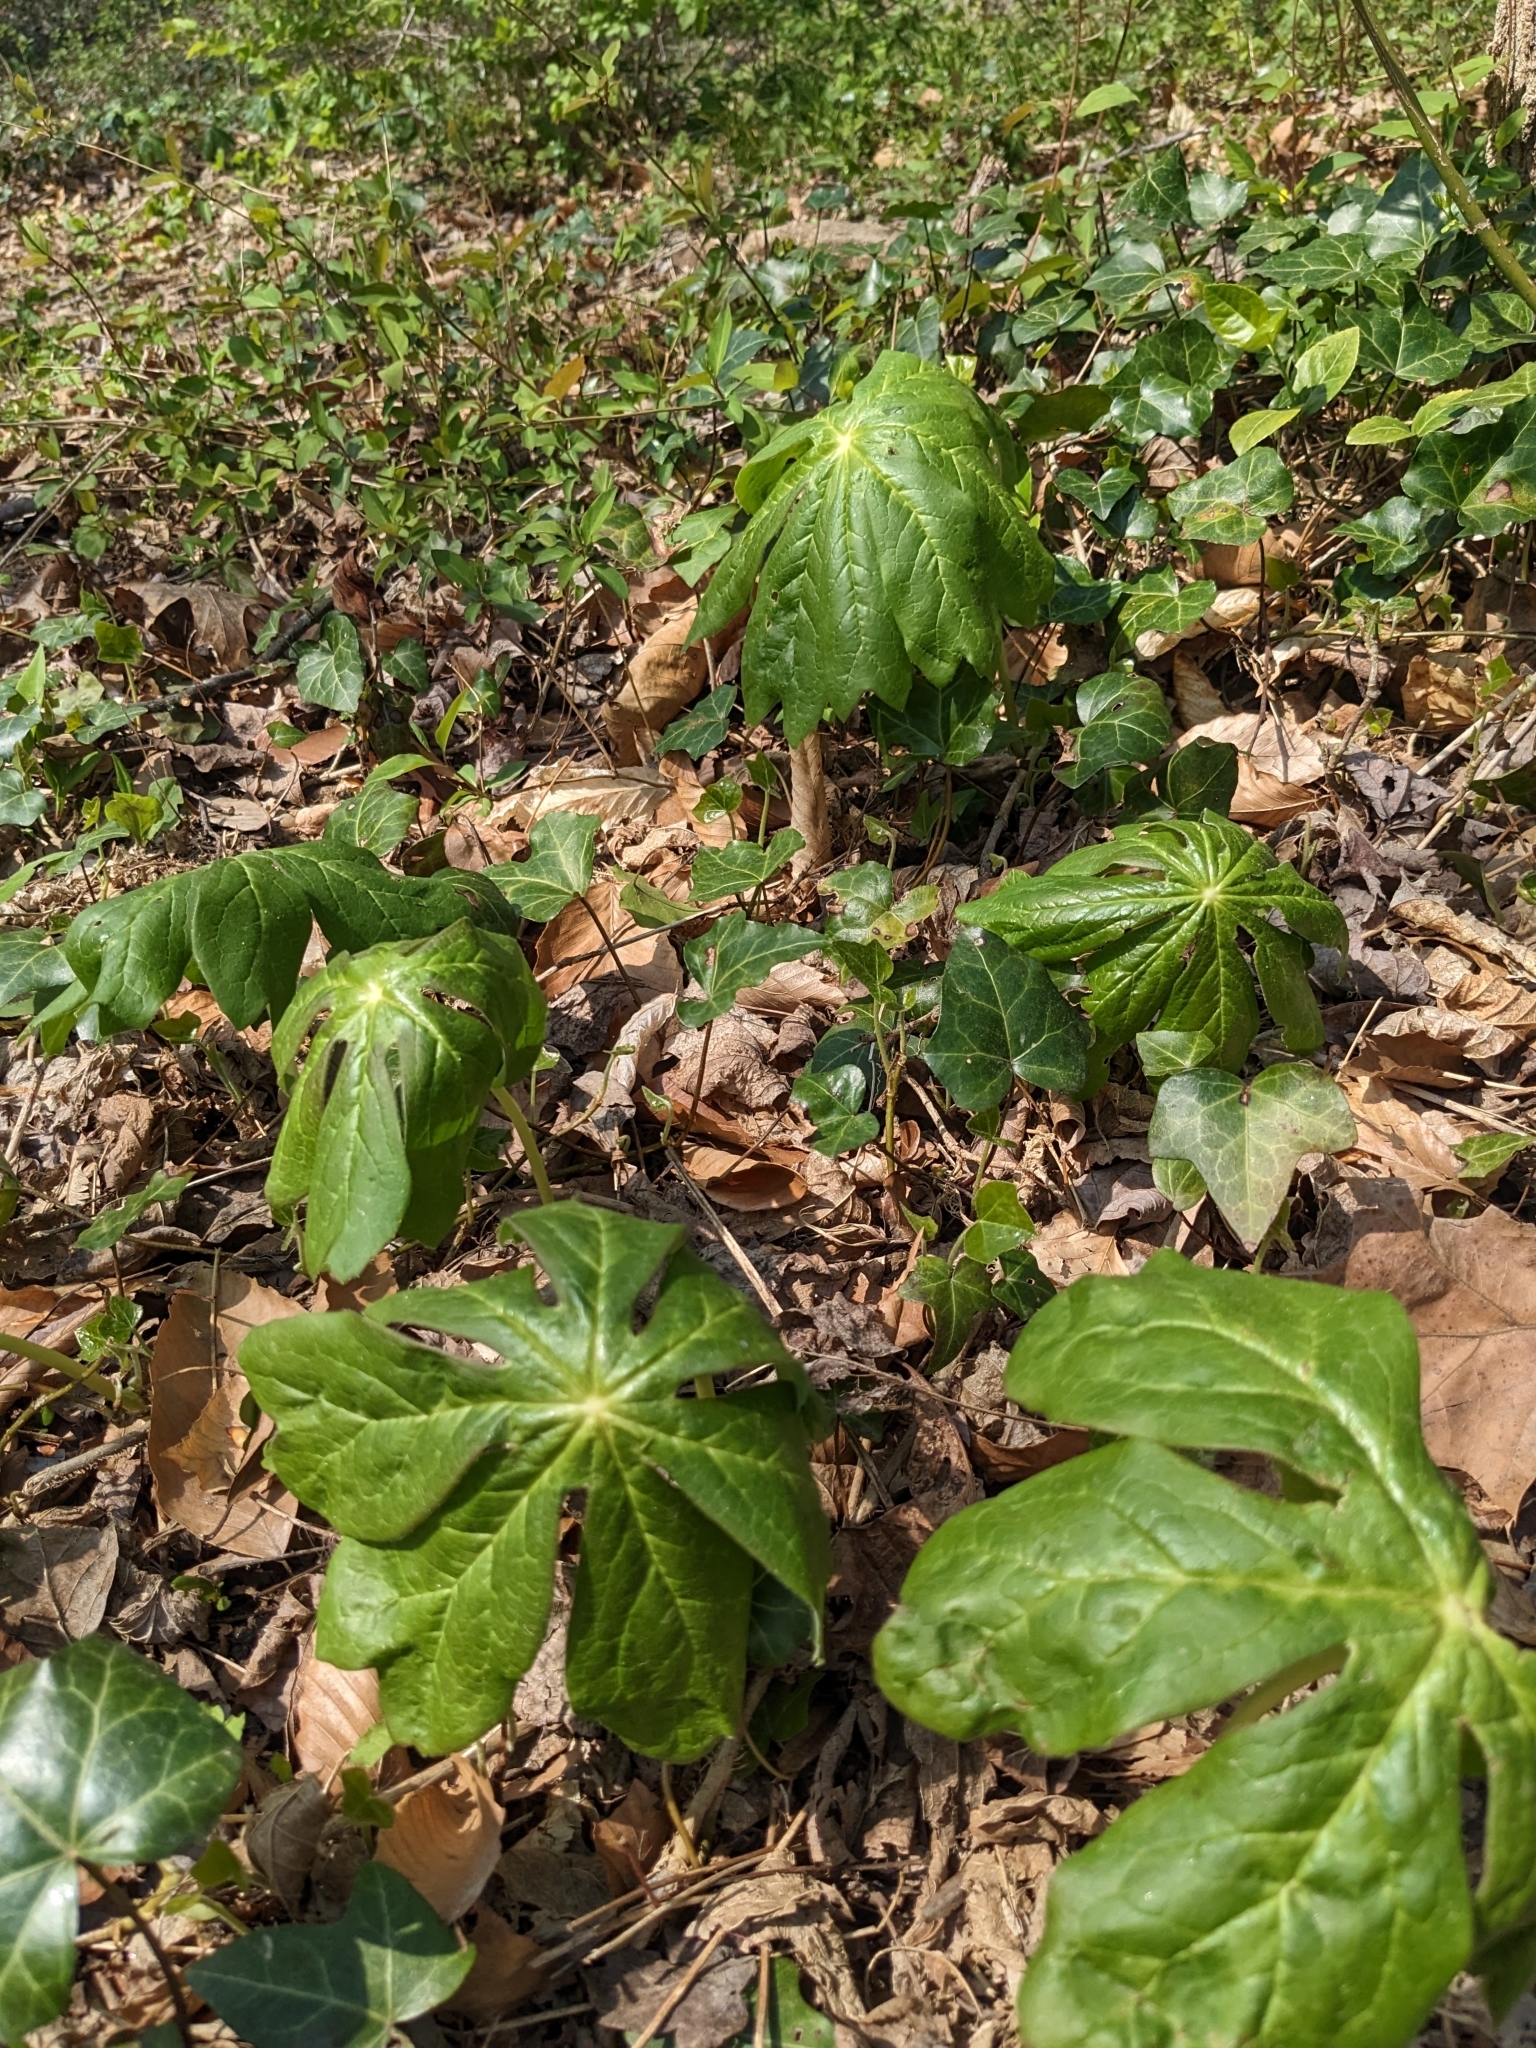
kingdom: Plantae
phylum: Tracheophyta
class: Magnoliopsida
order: Ranunculales
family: Berberidaceae
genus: Podophyllum
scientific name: Podophyllum peltatum
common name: Wild mandrake
